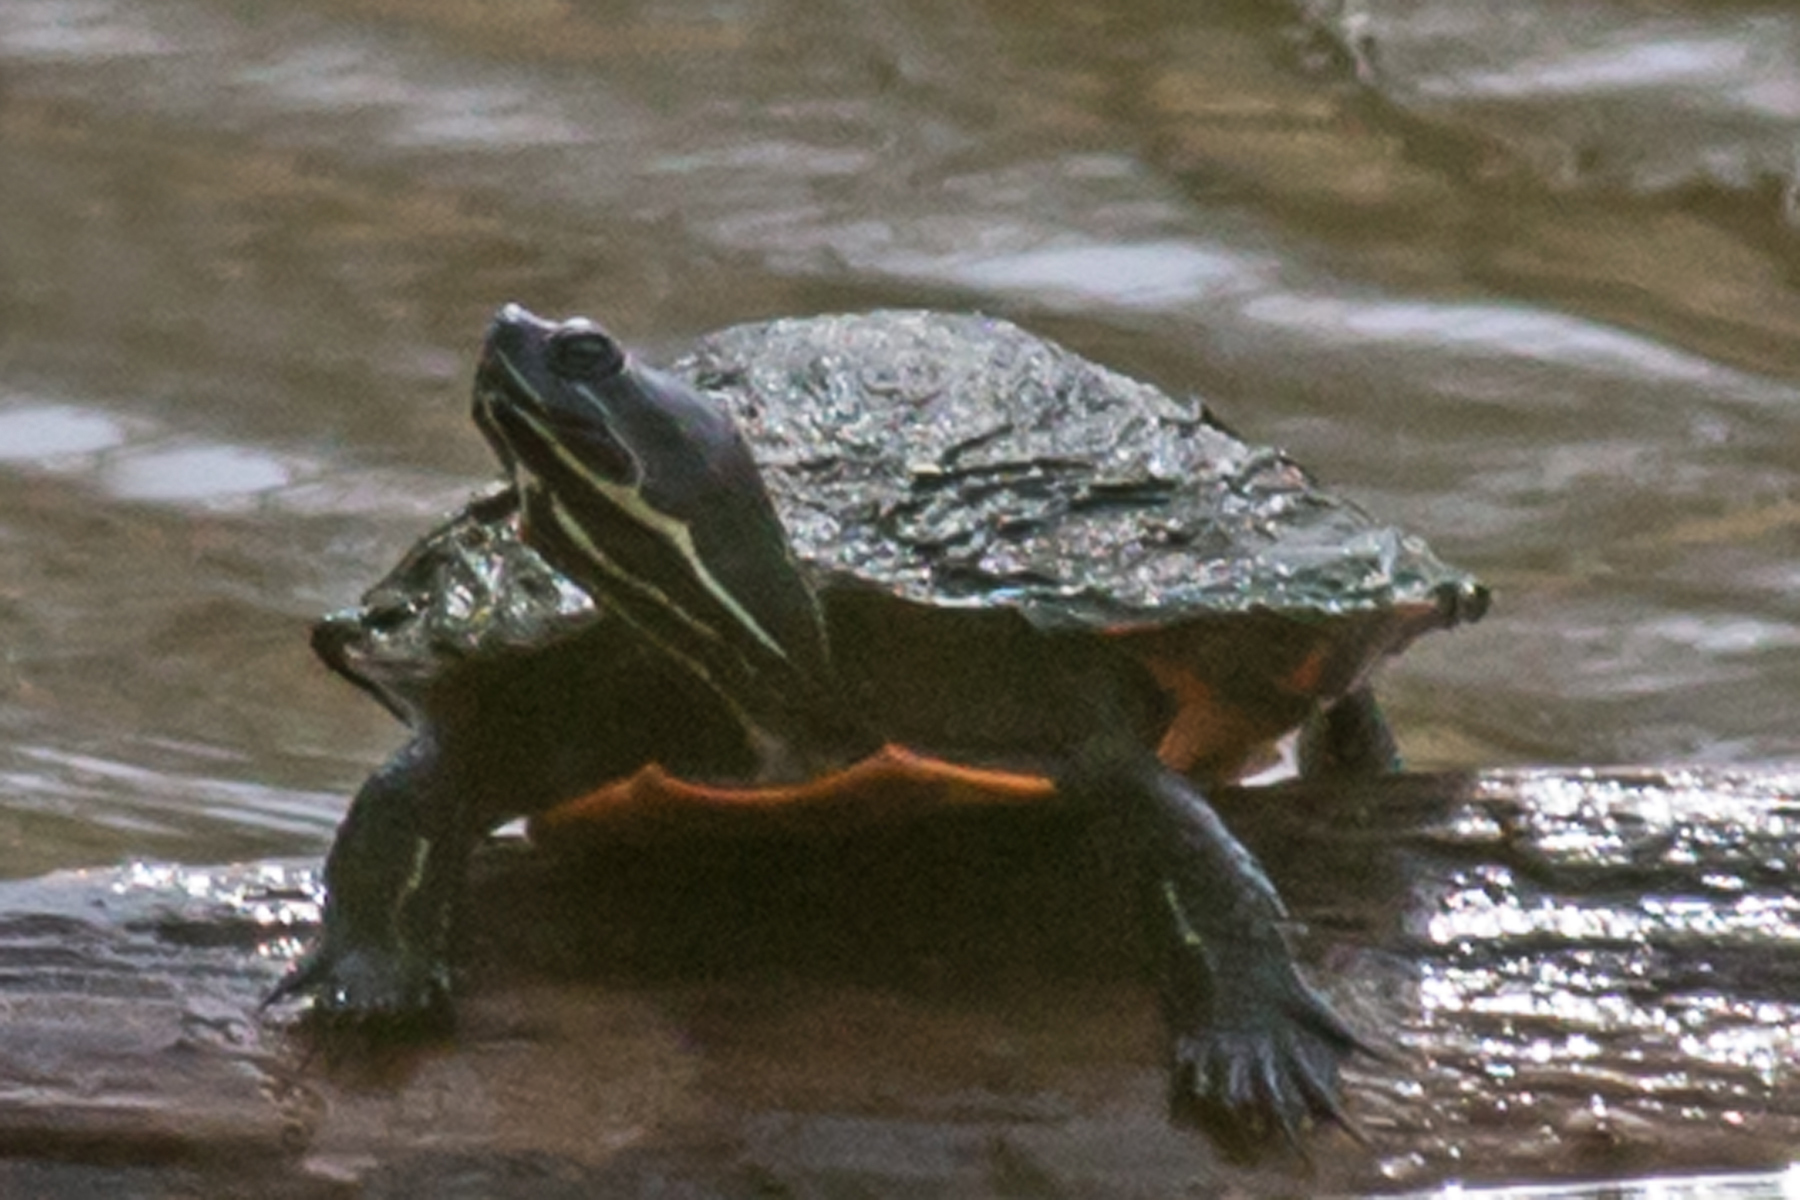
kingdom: Animalia
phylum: Chordata
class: Testudines
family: Emydidae
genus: Pseudemys
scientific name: Pseudemys rubriventris
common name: American red-bellied turtle
